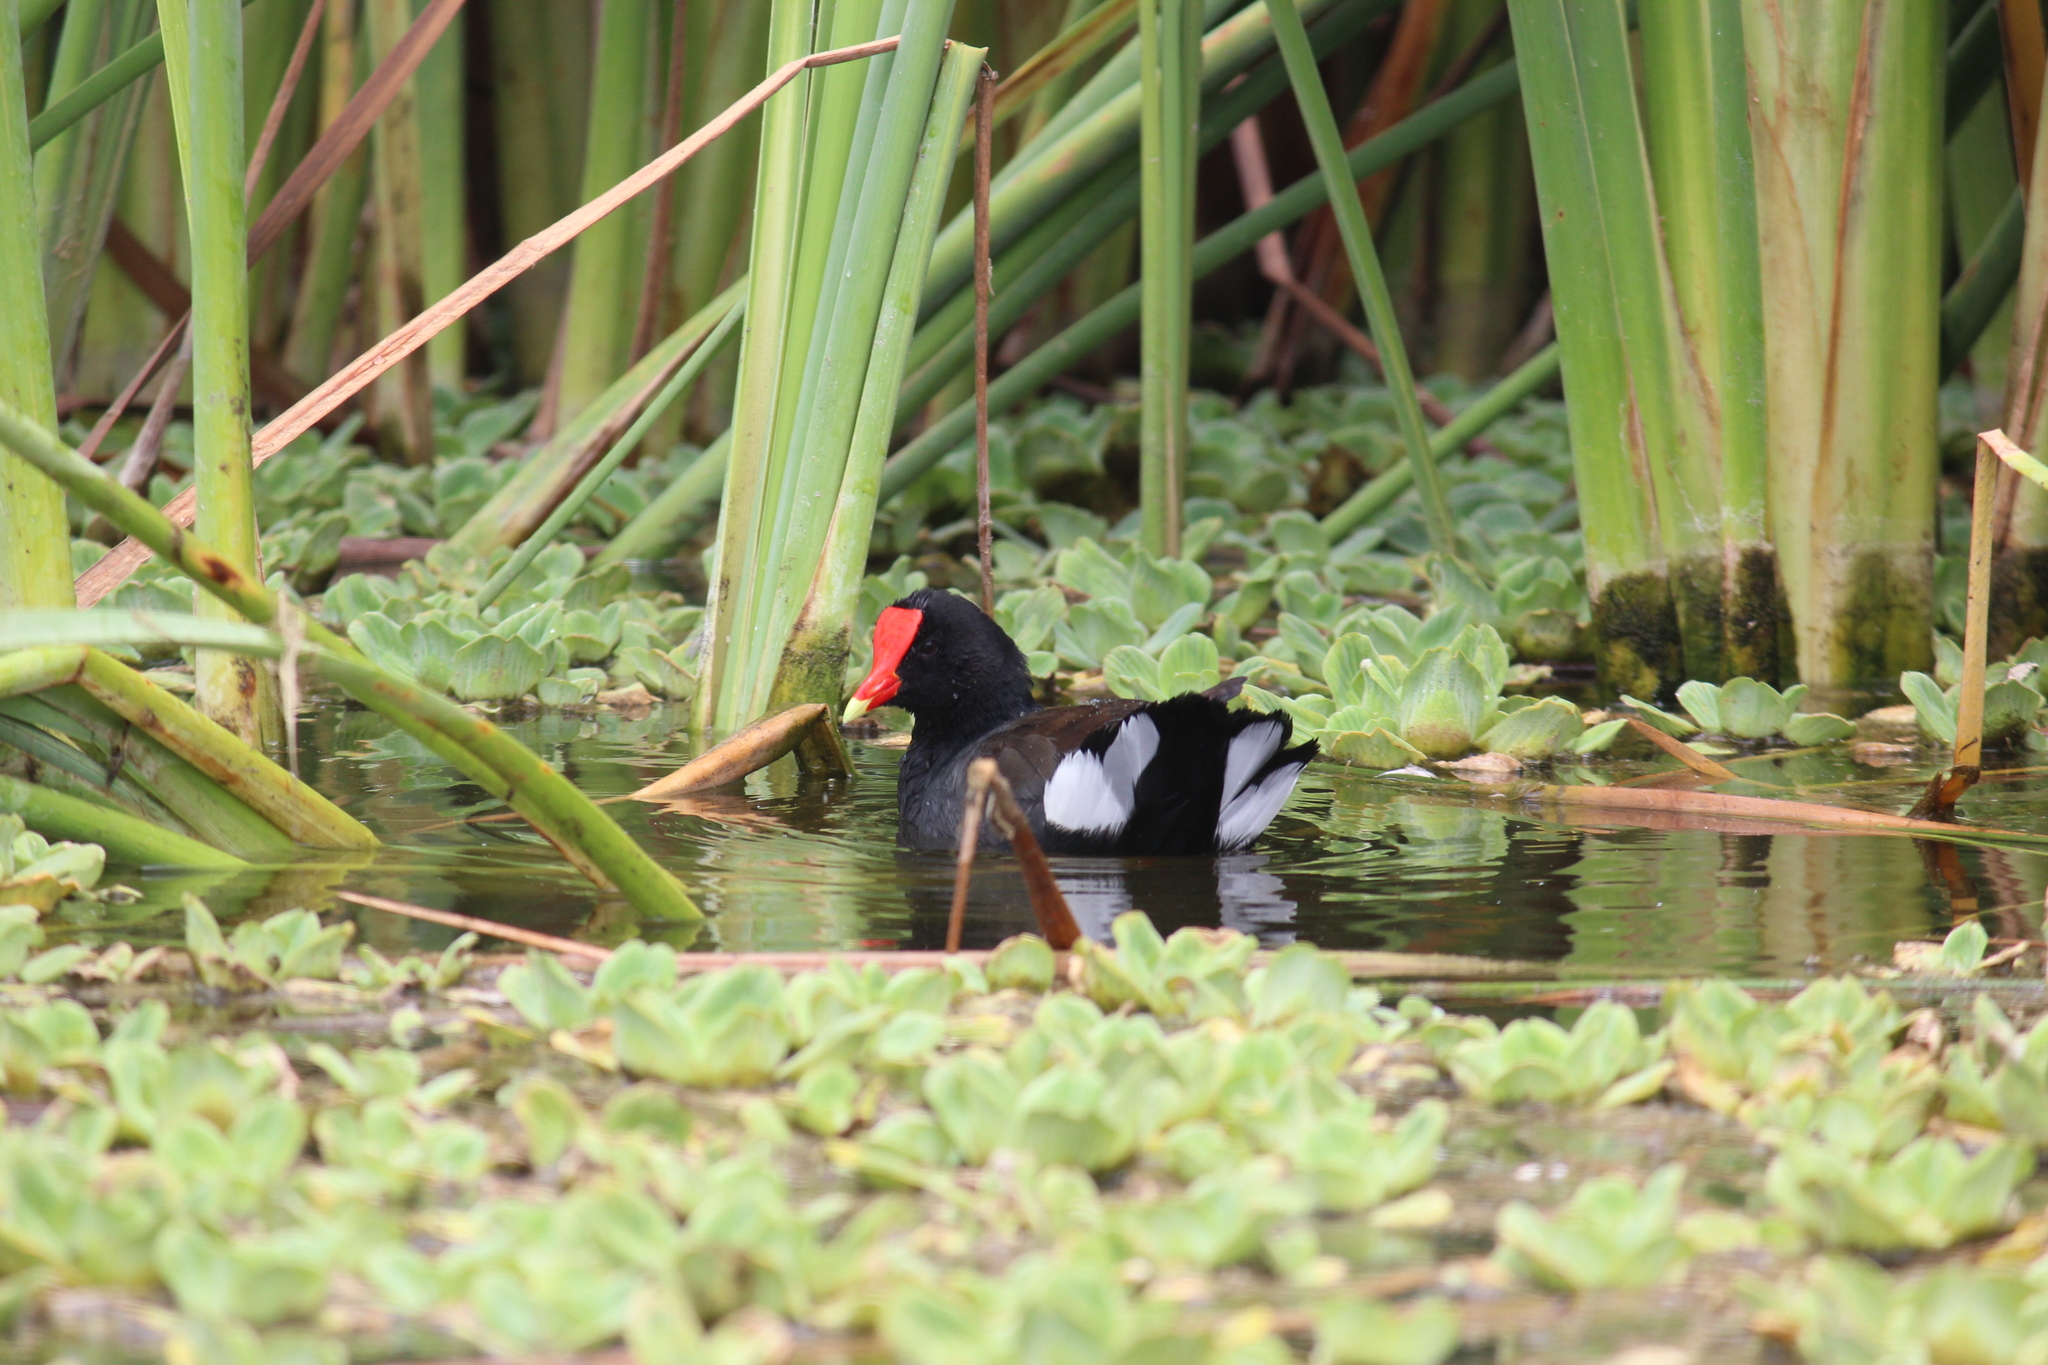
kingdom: Animalia
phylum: Chordata
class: Aves
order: Gruiformes
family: Rallidae
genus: Gallinula
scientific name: Gallinula chloropus
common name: Common moorhen
